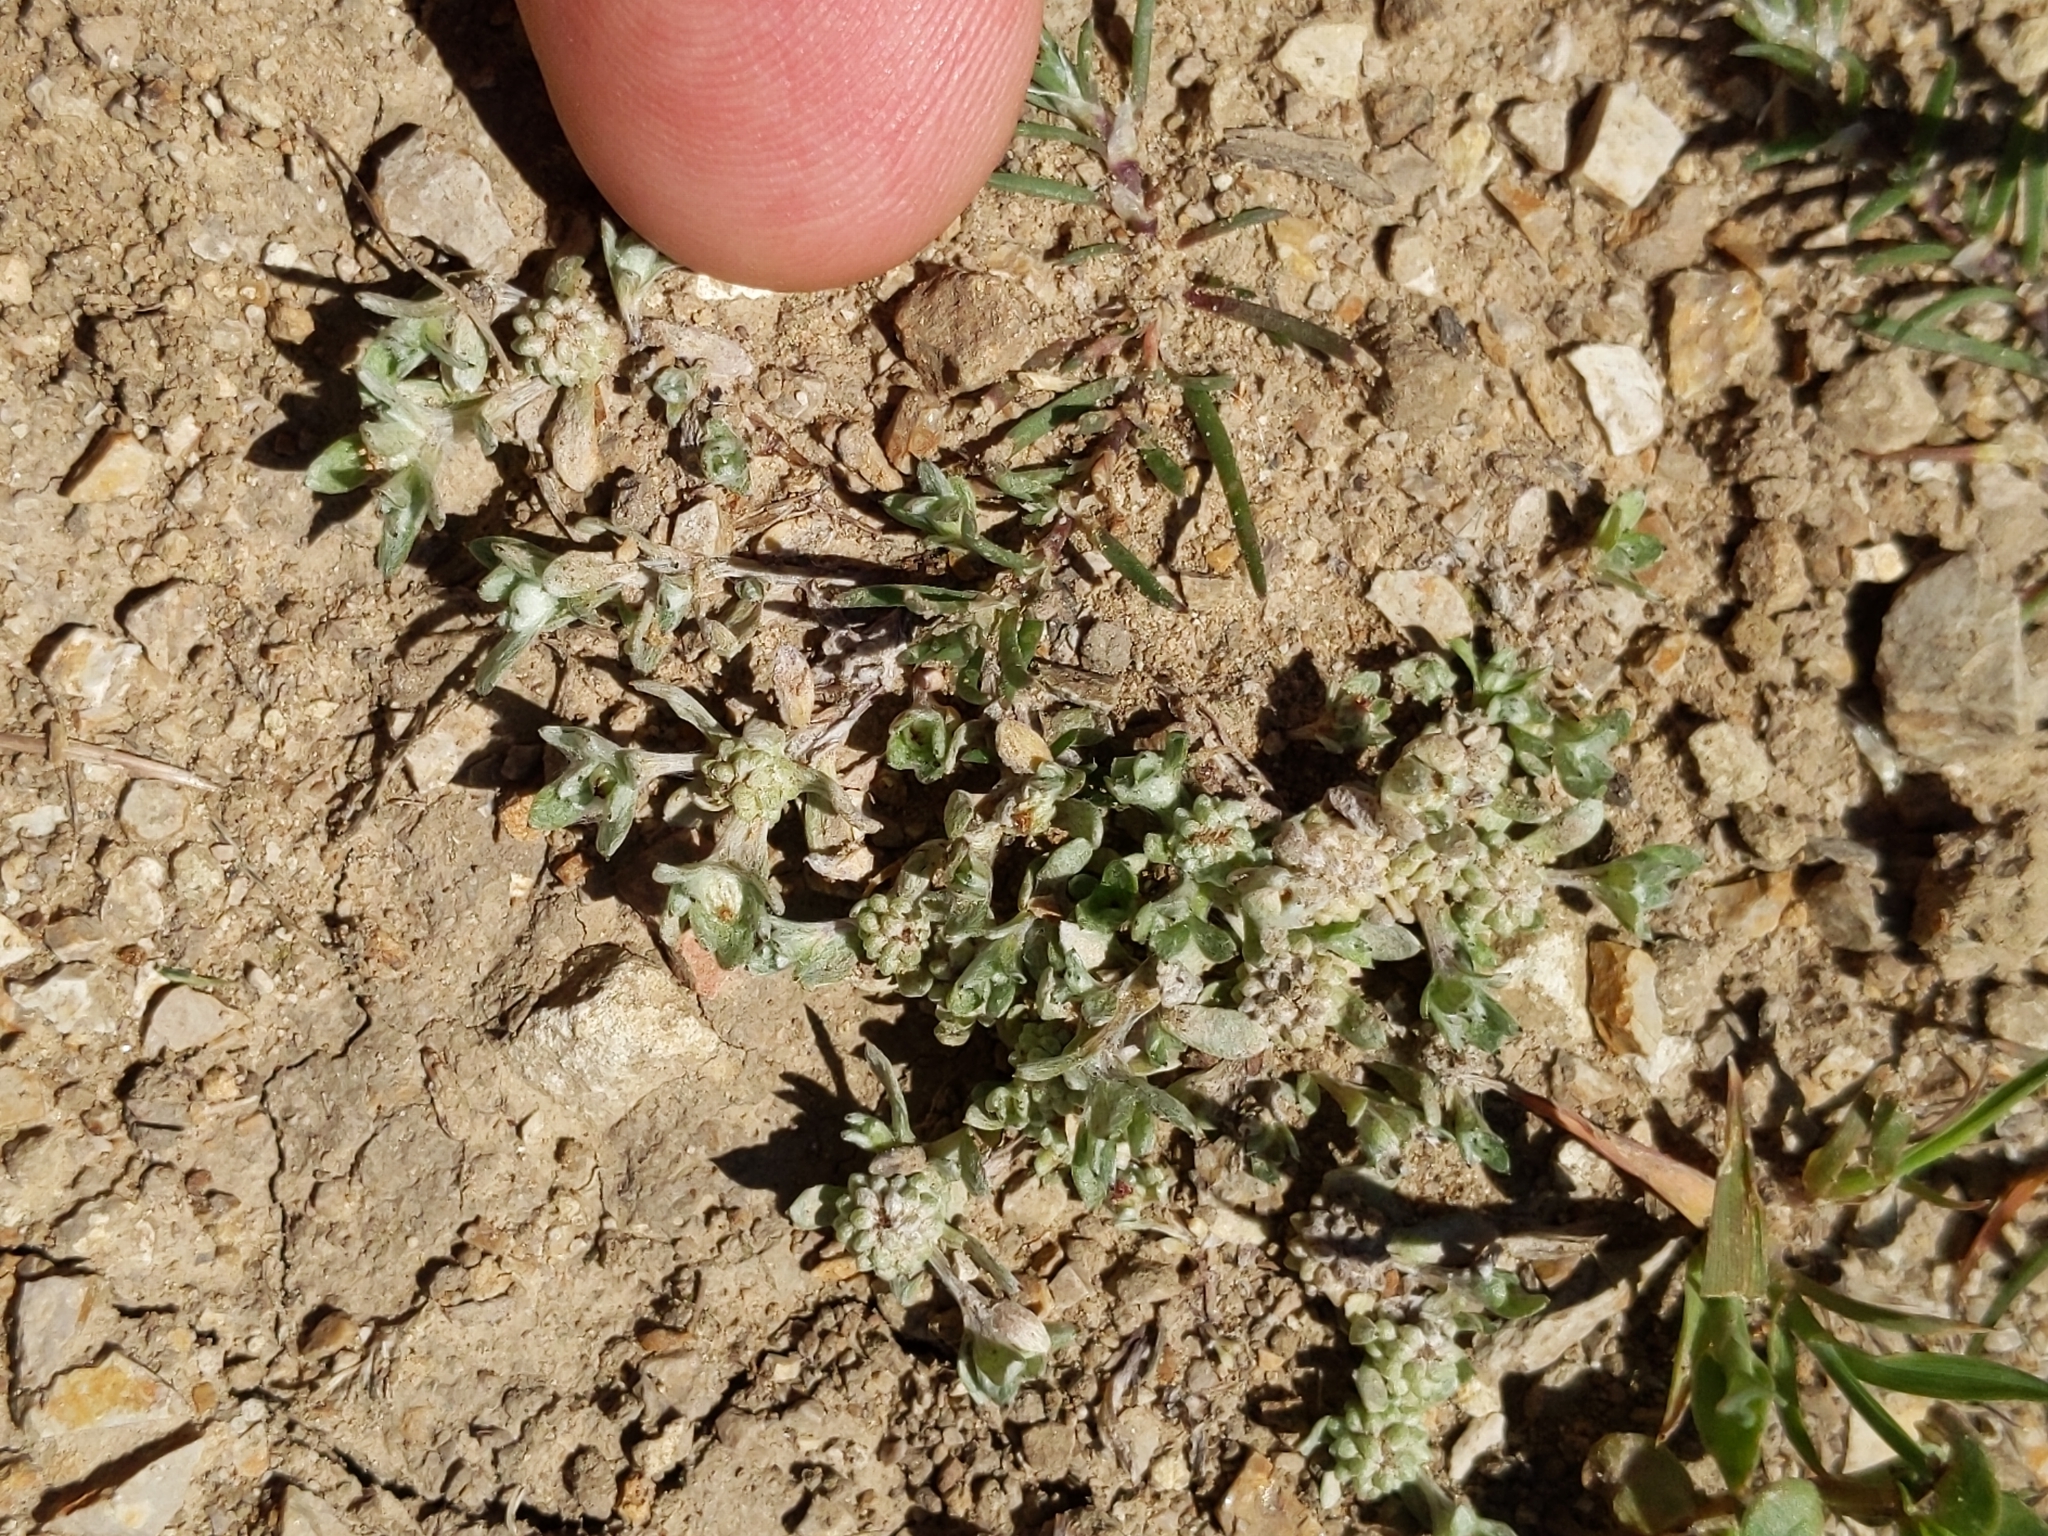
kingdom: Plantae
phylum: Tracheophyta
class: Magnoliopsida
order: Asterales
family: Asteraceae
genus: Psilocarphus
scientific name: Psilocarphus tenellus
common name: Slender woolly-marbles
